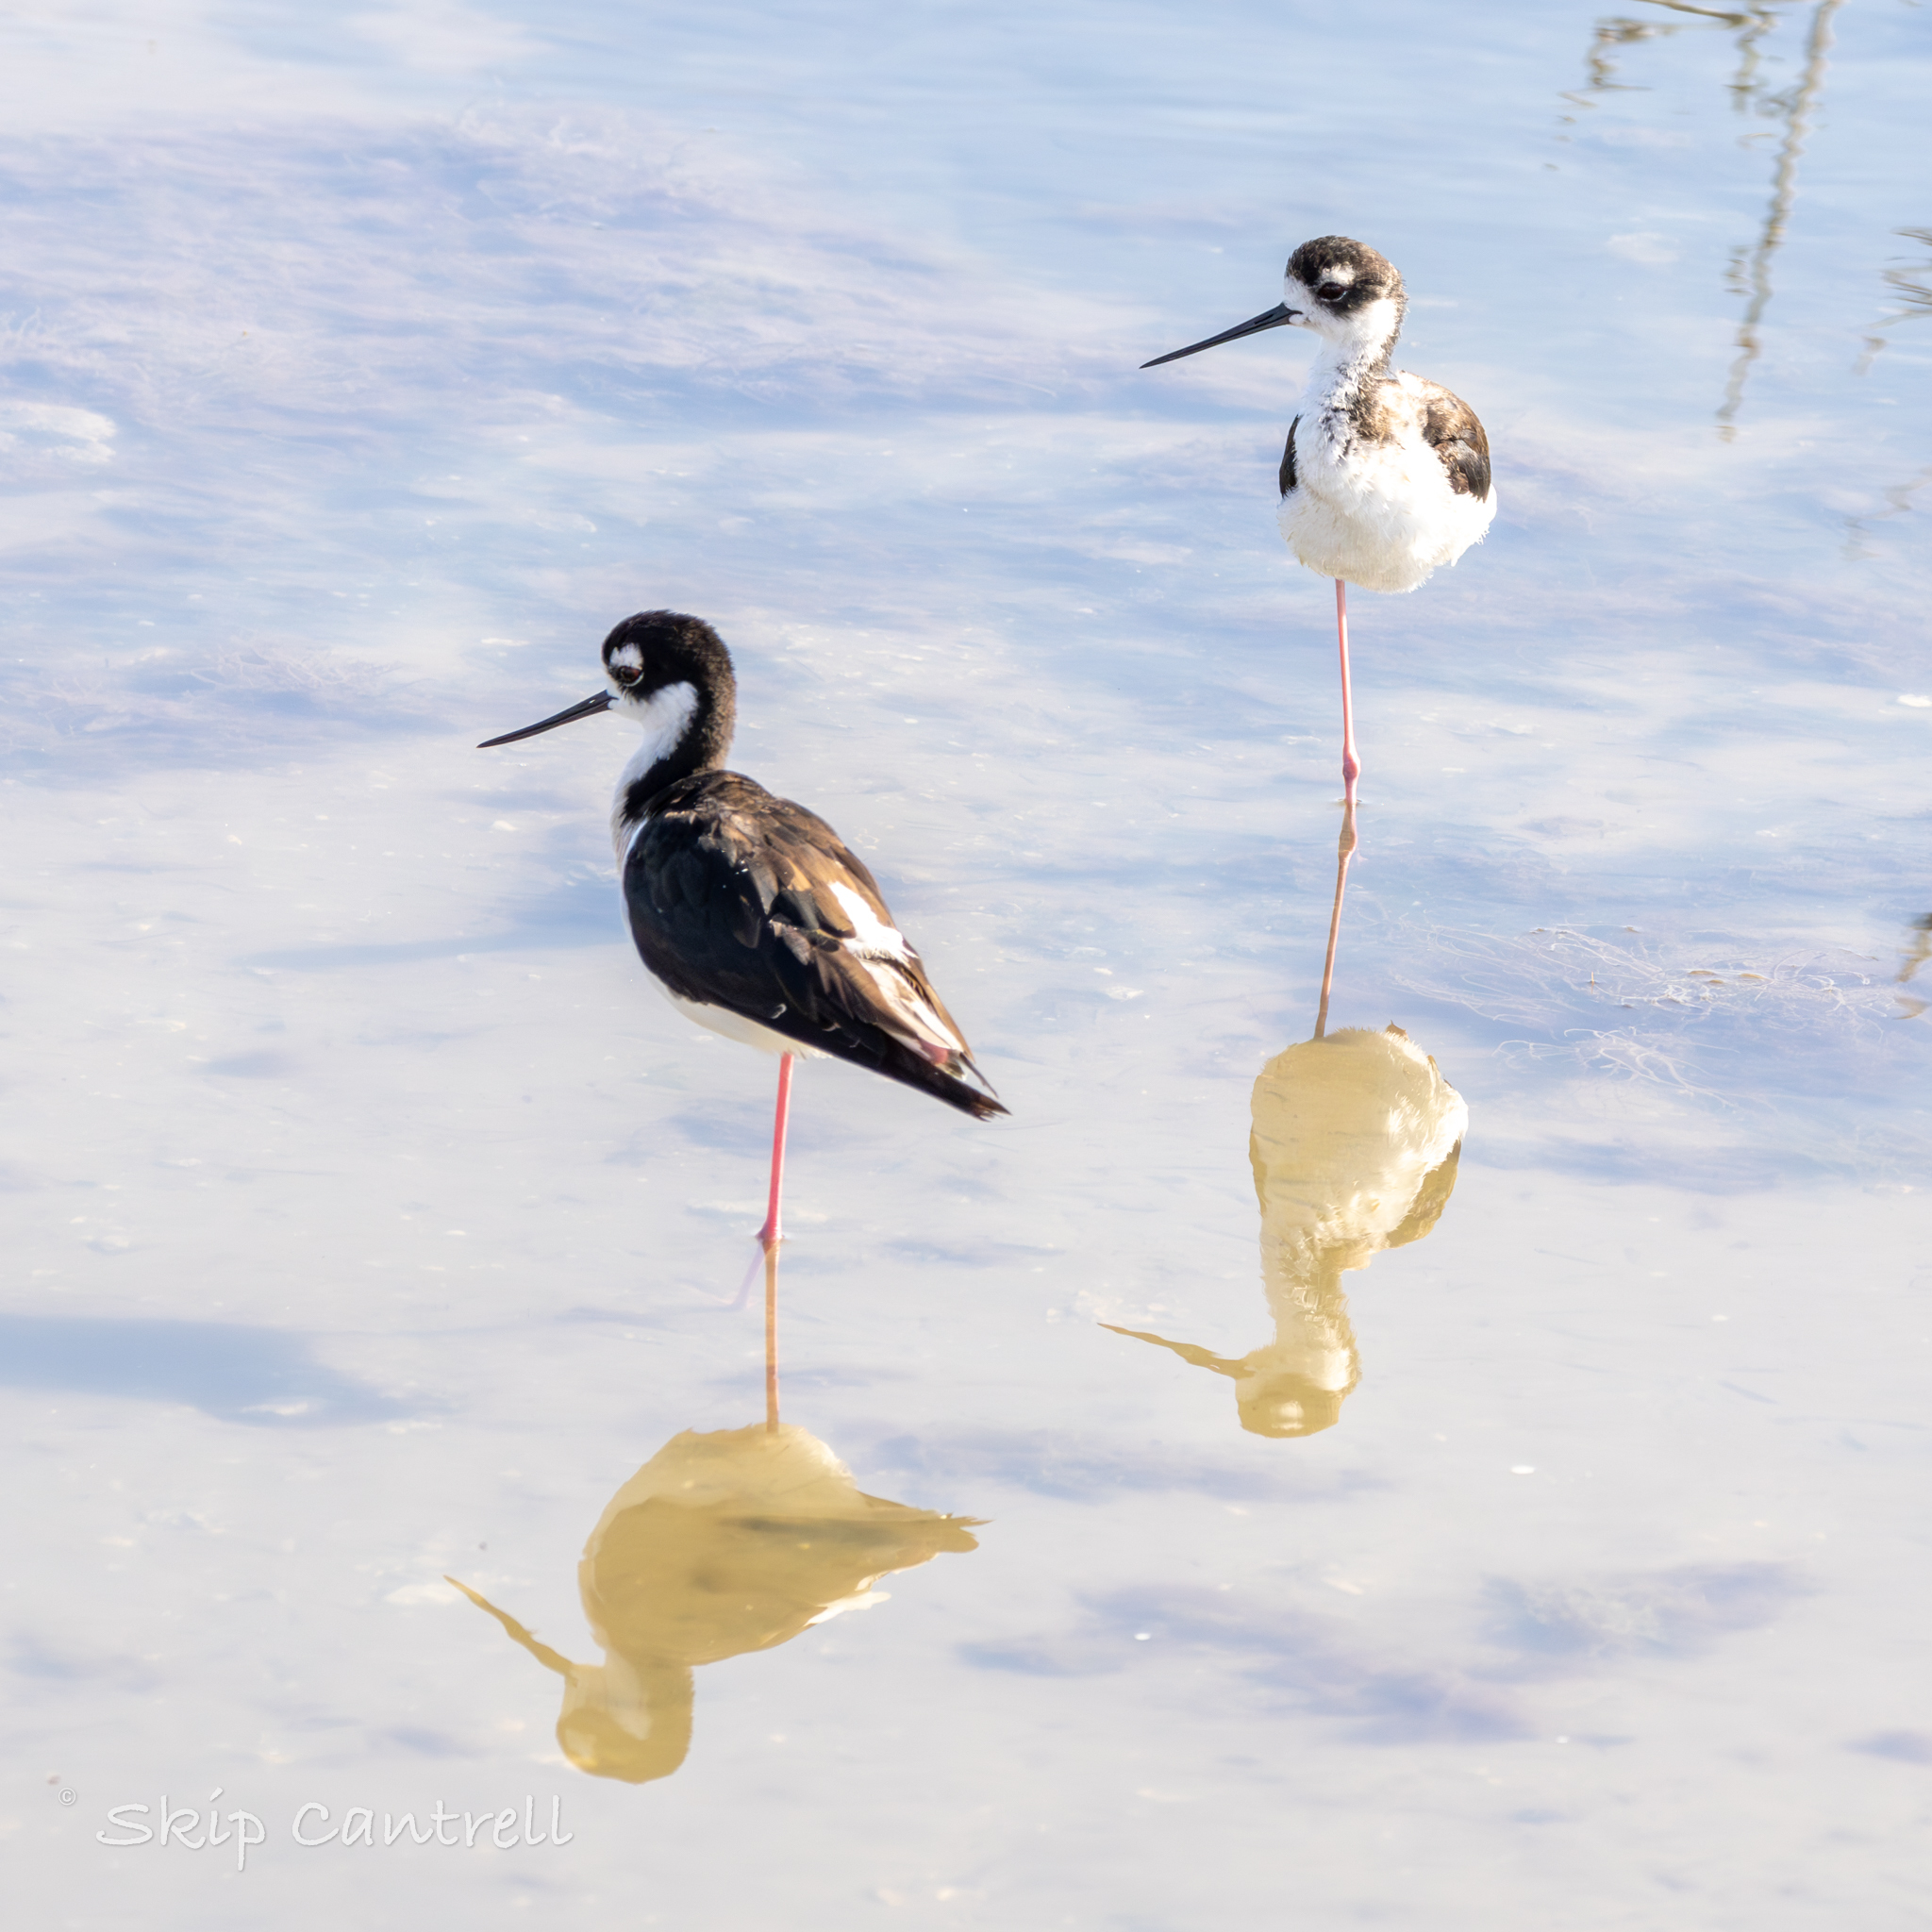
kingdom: Animalia
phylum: Chordata
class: Aves
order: Charadriiformes
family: Recurvirostridae
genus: Himantopus
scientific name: Himantopus mexicanus
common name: Black-necked stilt
